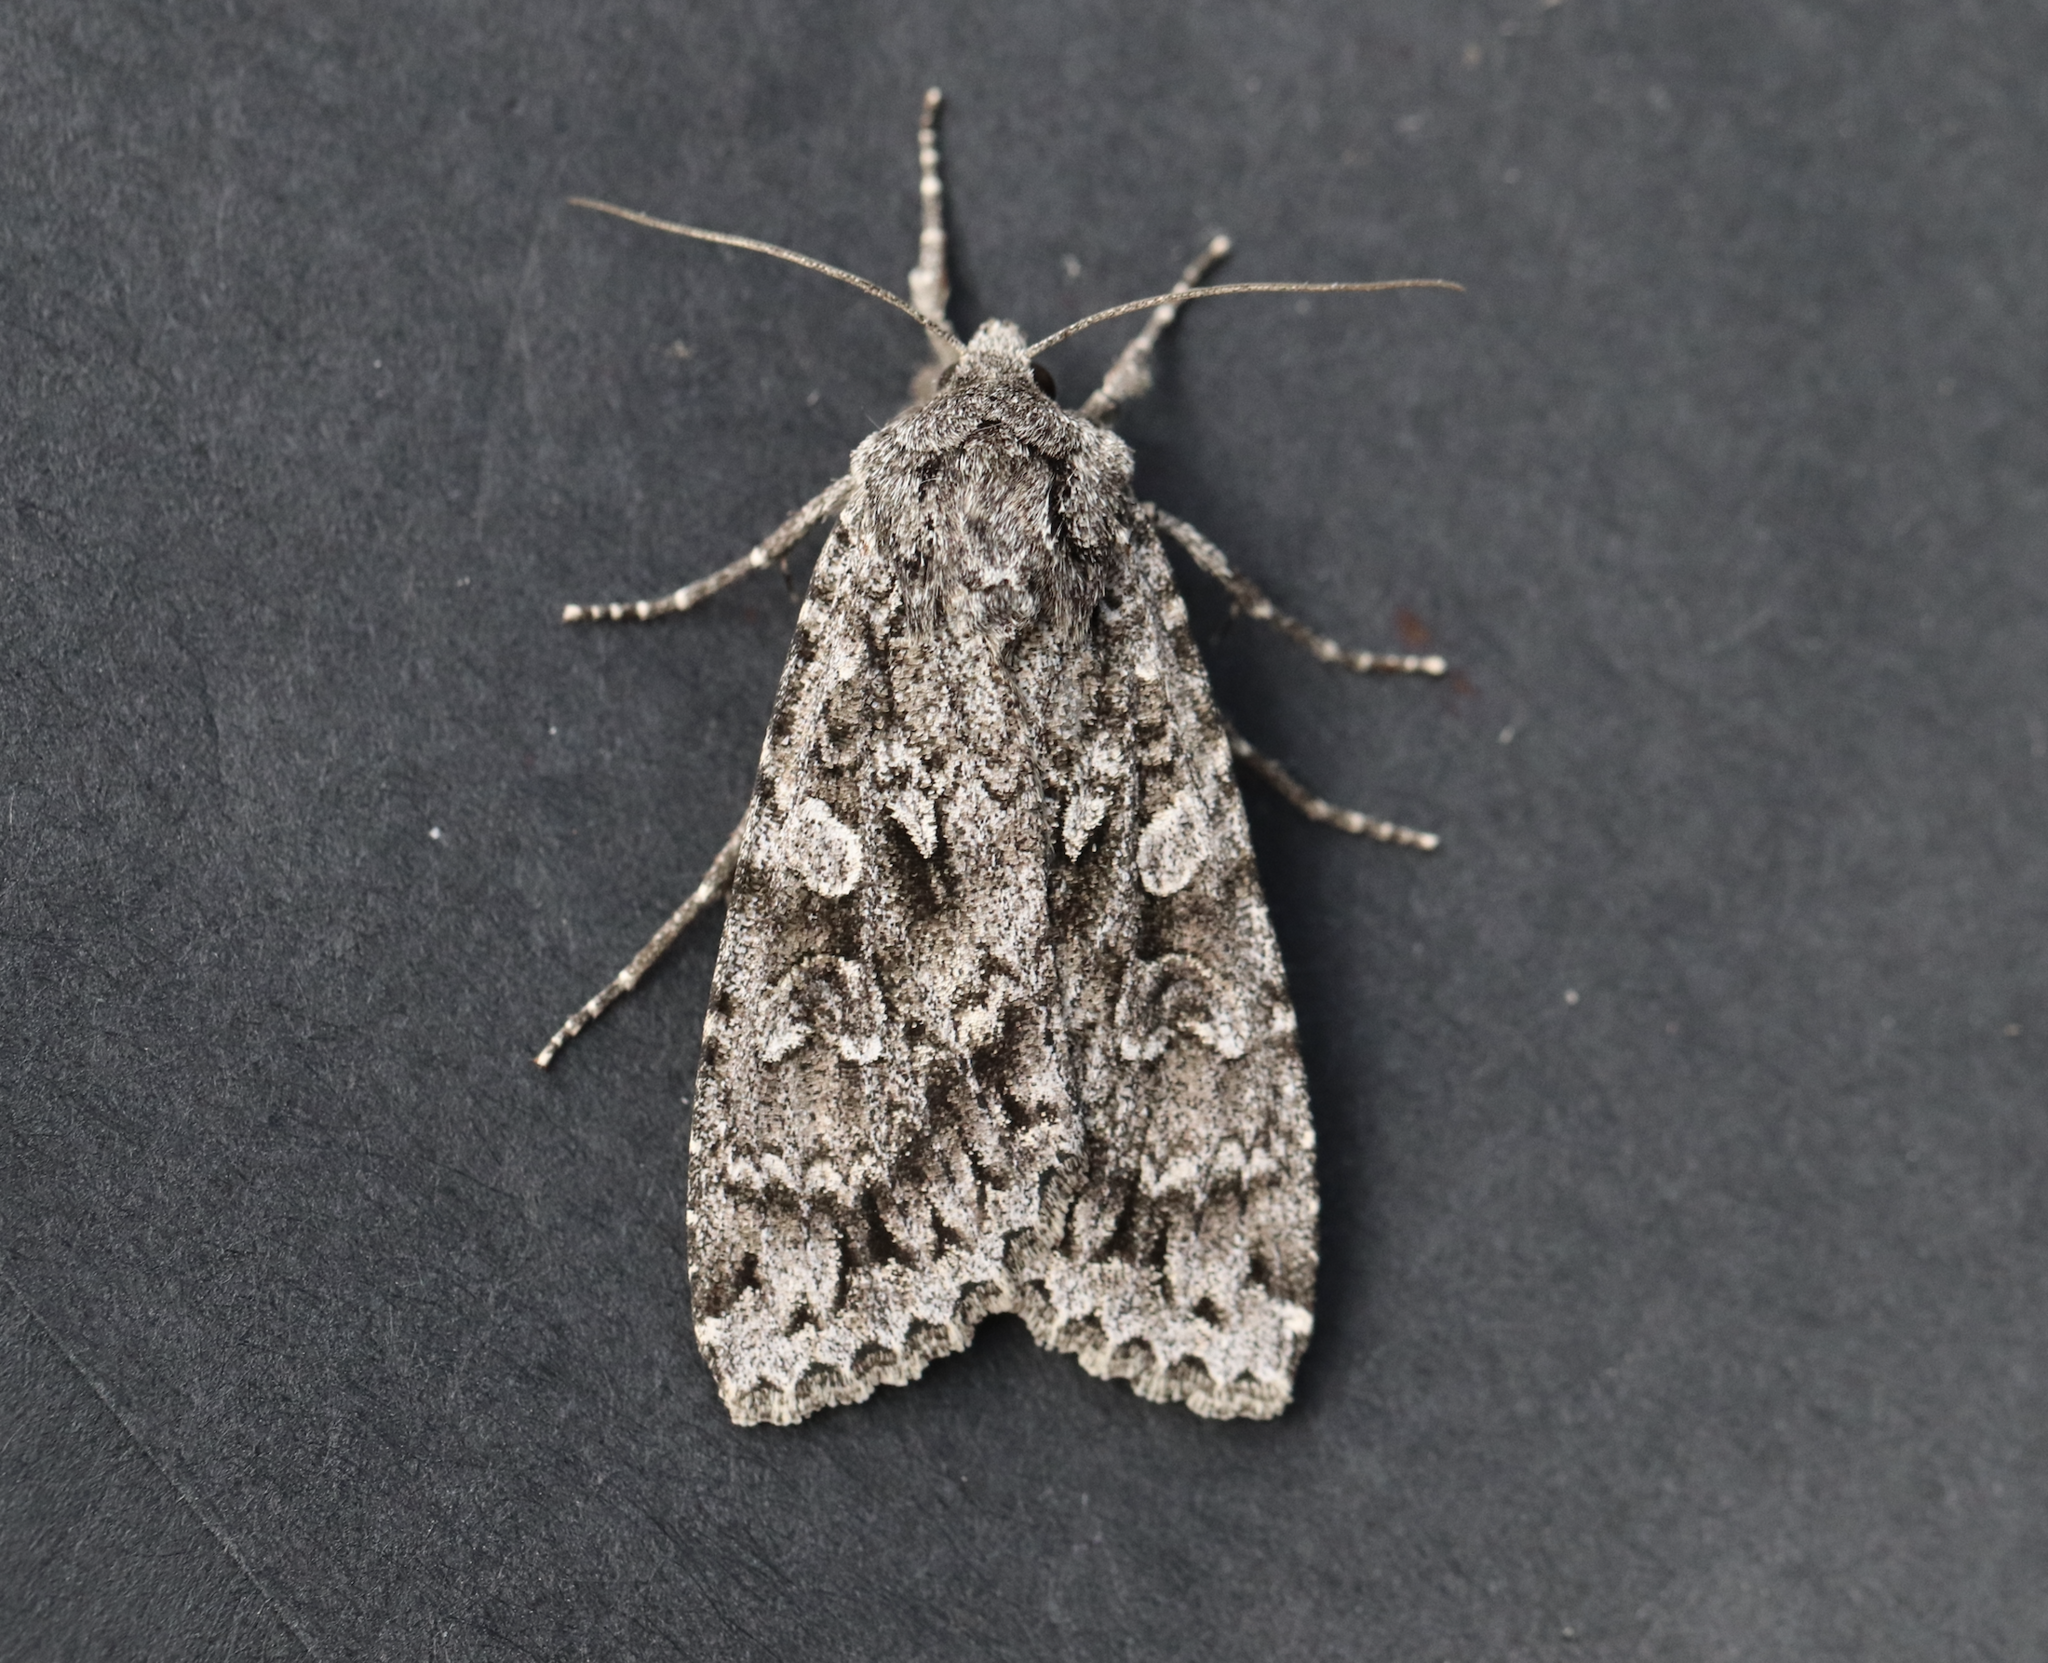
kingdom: Animalia
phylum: Arthropoda
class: Insecta
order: Lepidoptera
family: Noctuidae
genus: Eurois
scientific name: Eurois occulta
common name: Great brocade
